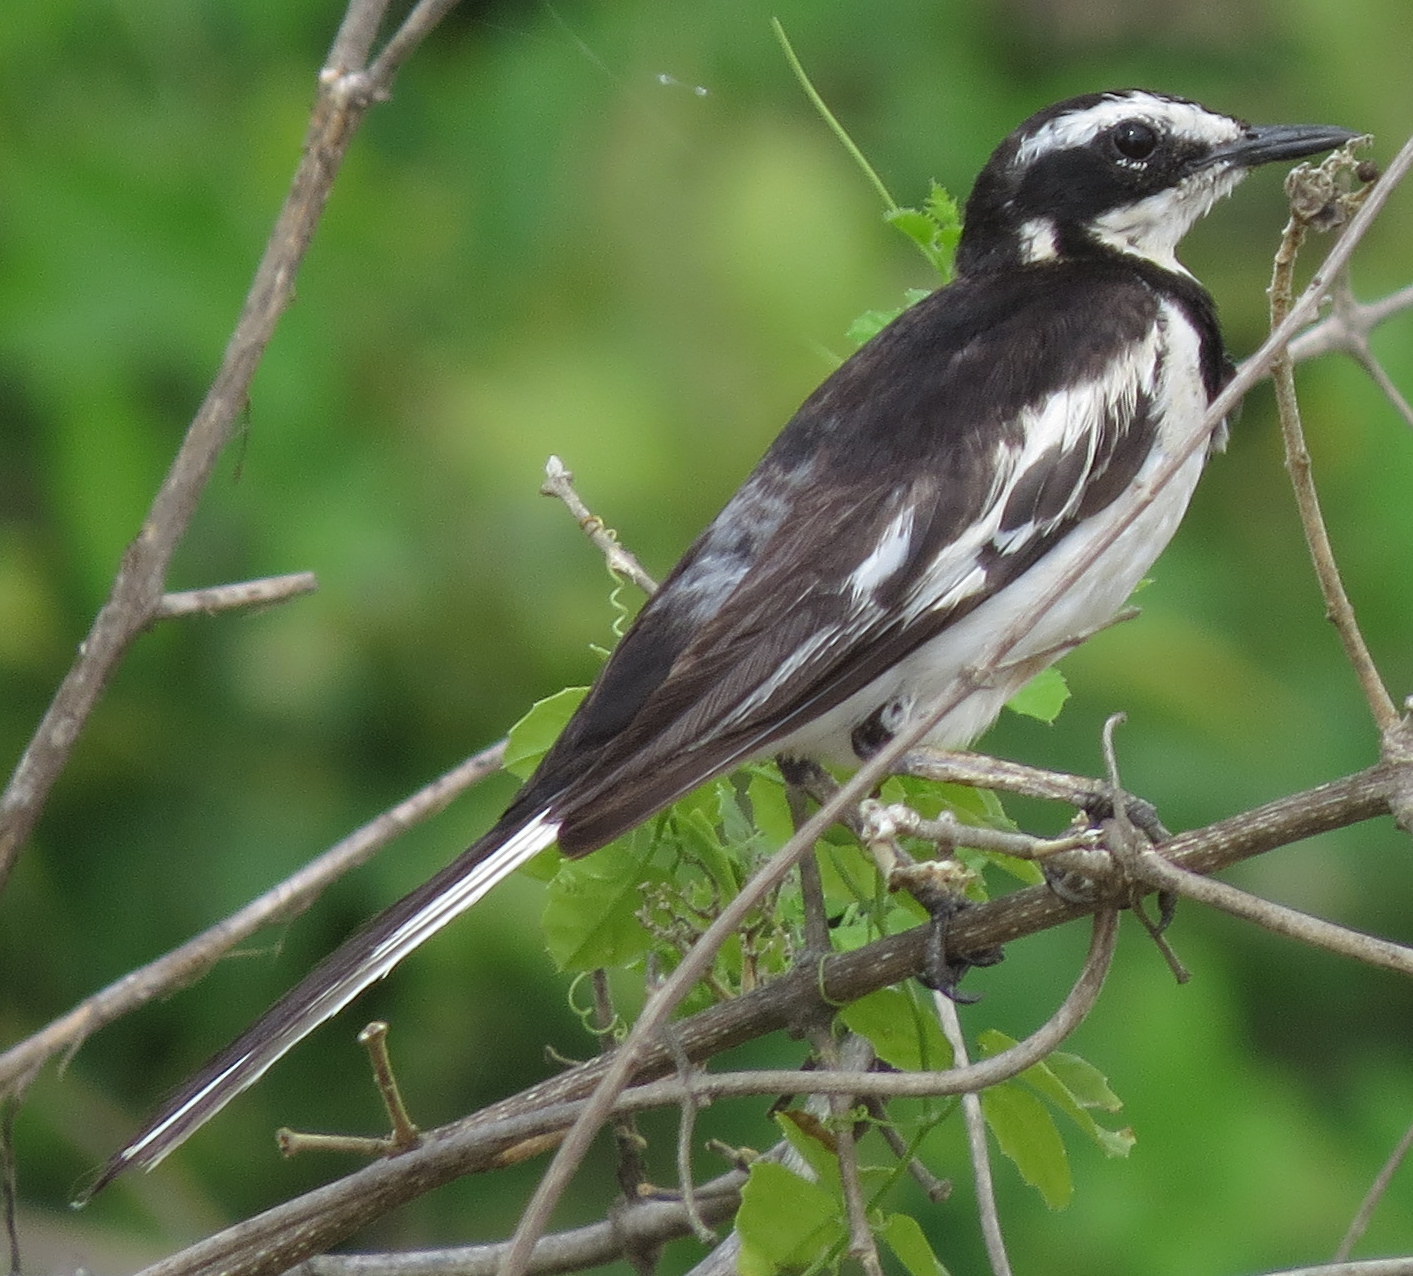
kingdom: Animalia
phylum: Chordata
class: Aves
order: Passeriformes
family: Motacillidae
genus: Motacilla
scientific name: Motacilla aguimp
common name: African pied wagtail
